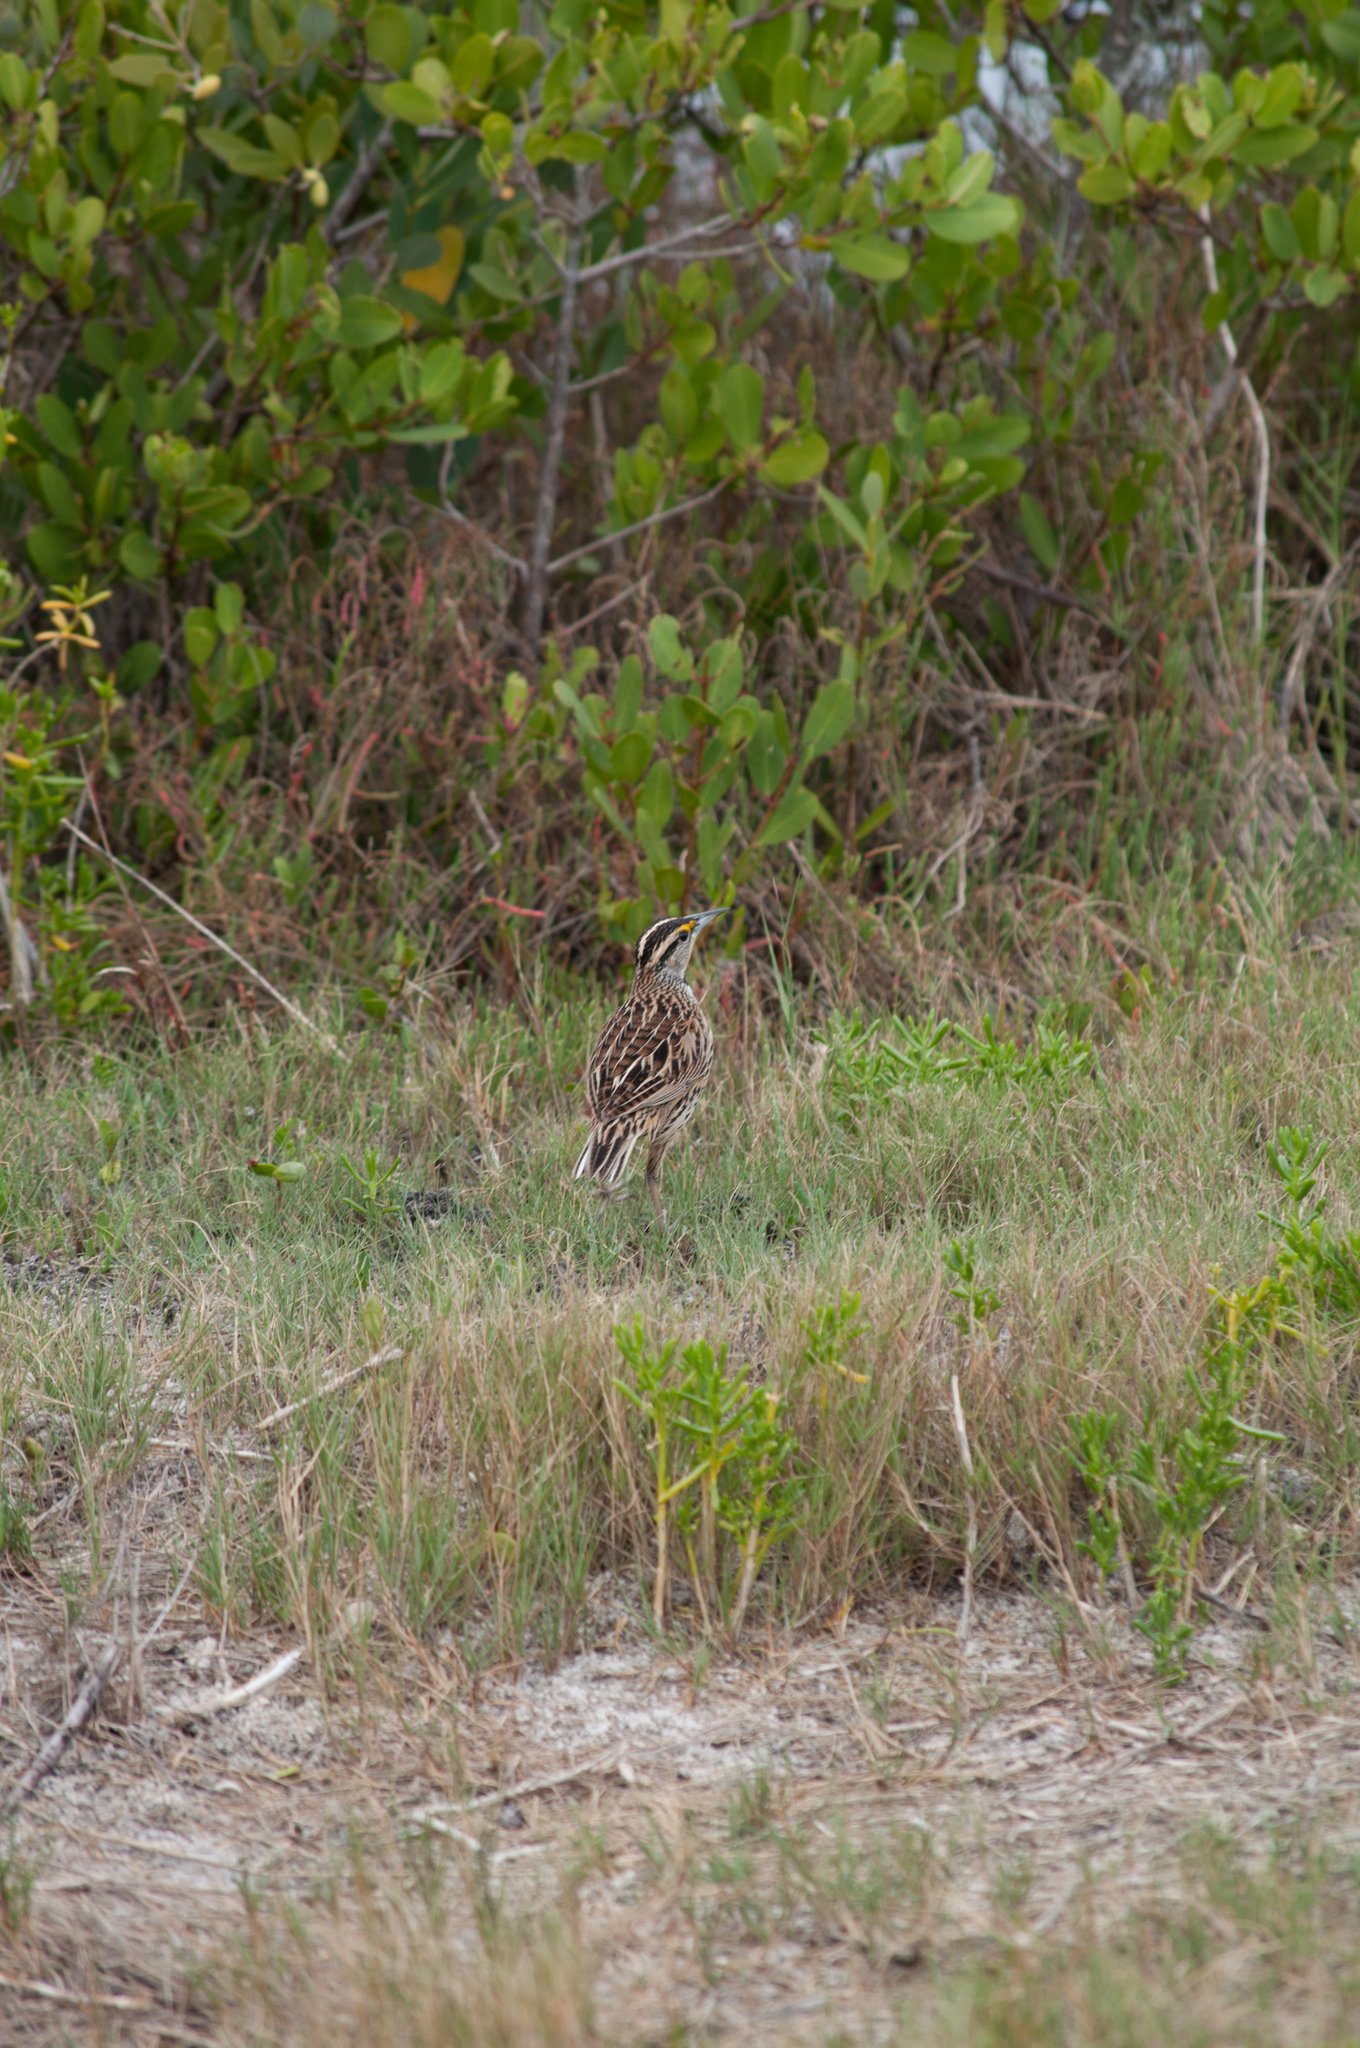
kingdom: Animalia
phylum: Chordata
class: Aves
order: Passeriformes
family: Icteridae
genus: Sturnella
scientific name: Sturnella magna
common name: Eastern meadowlark
